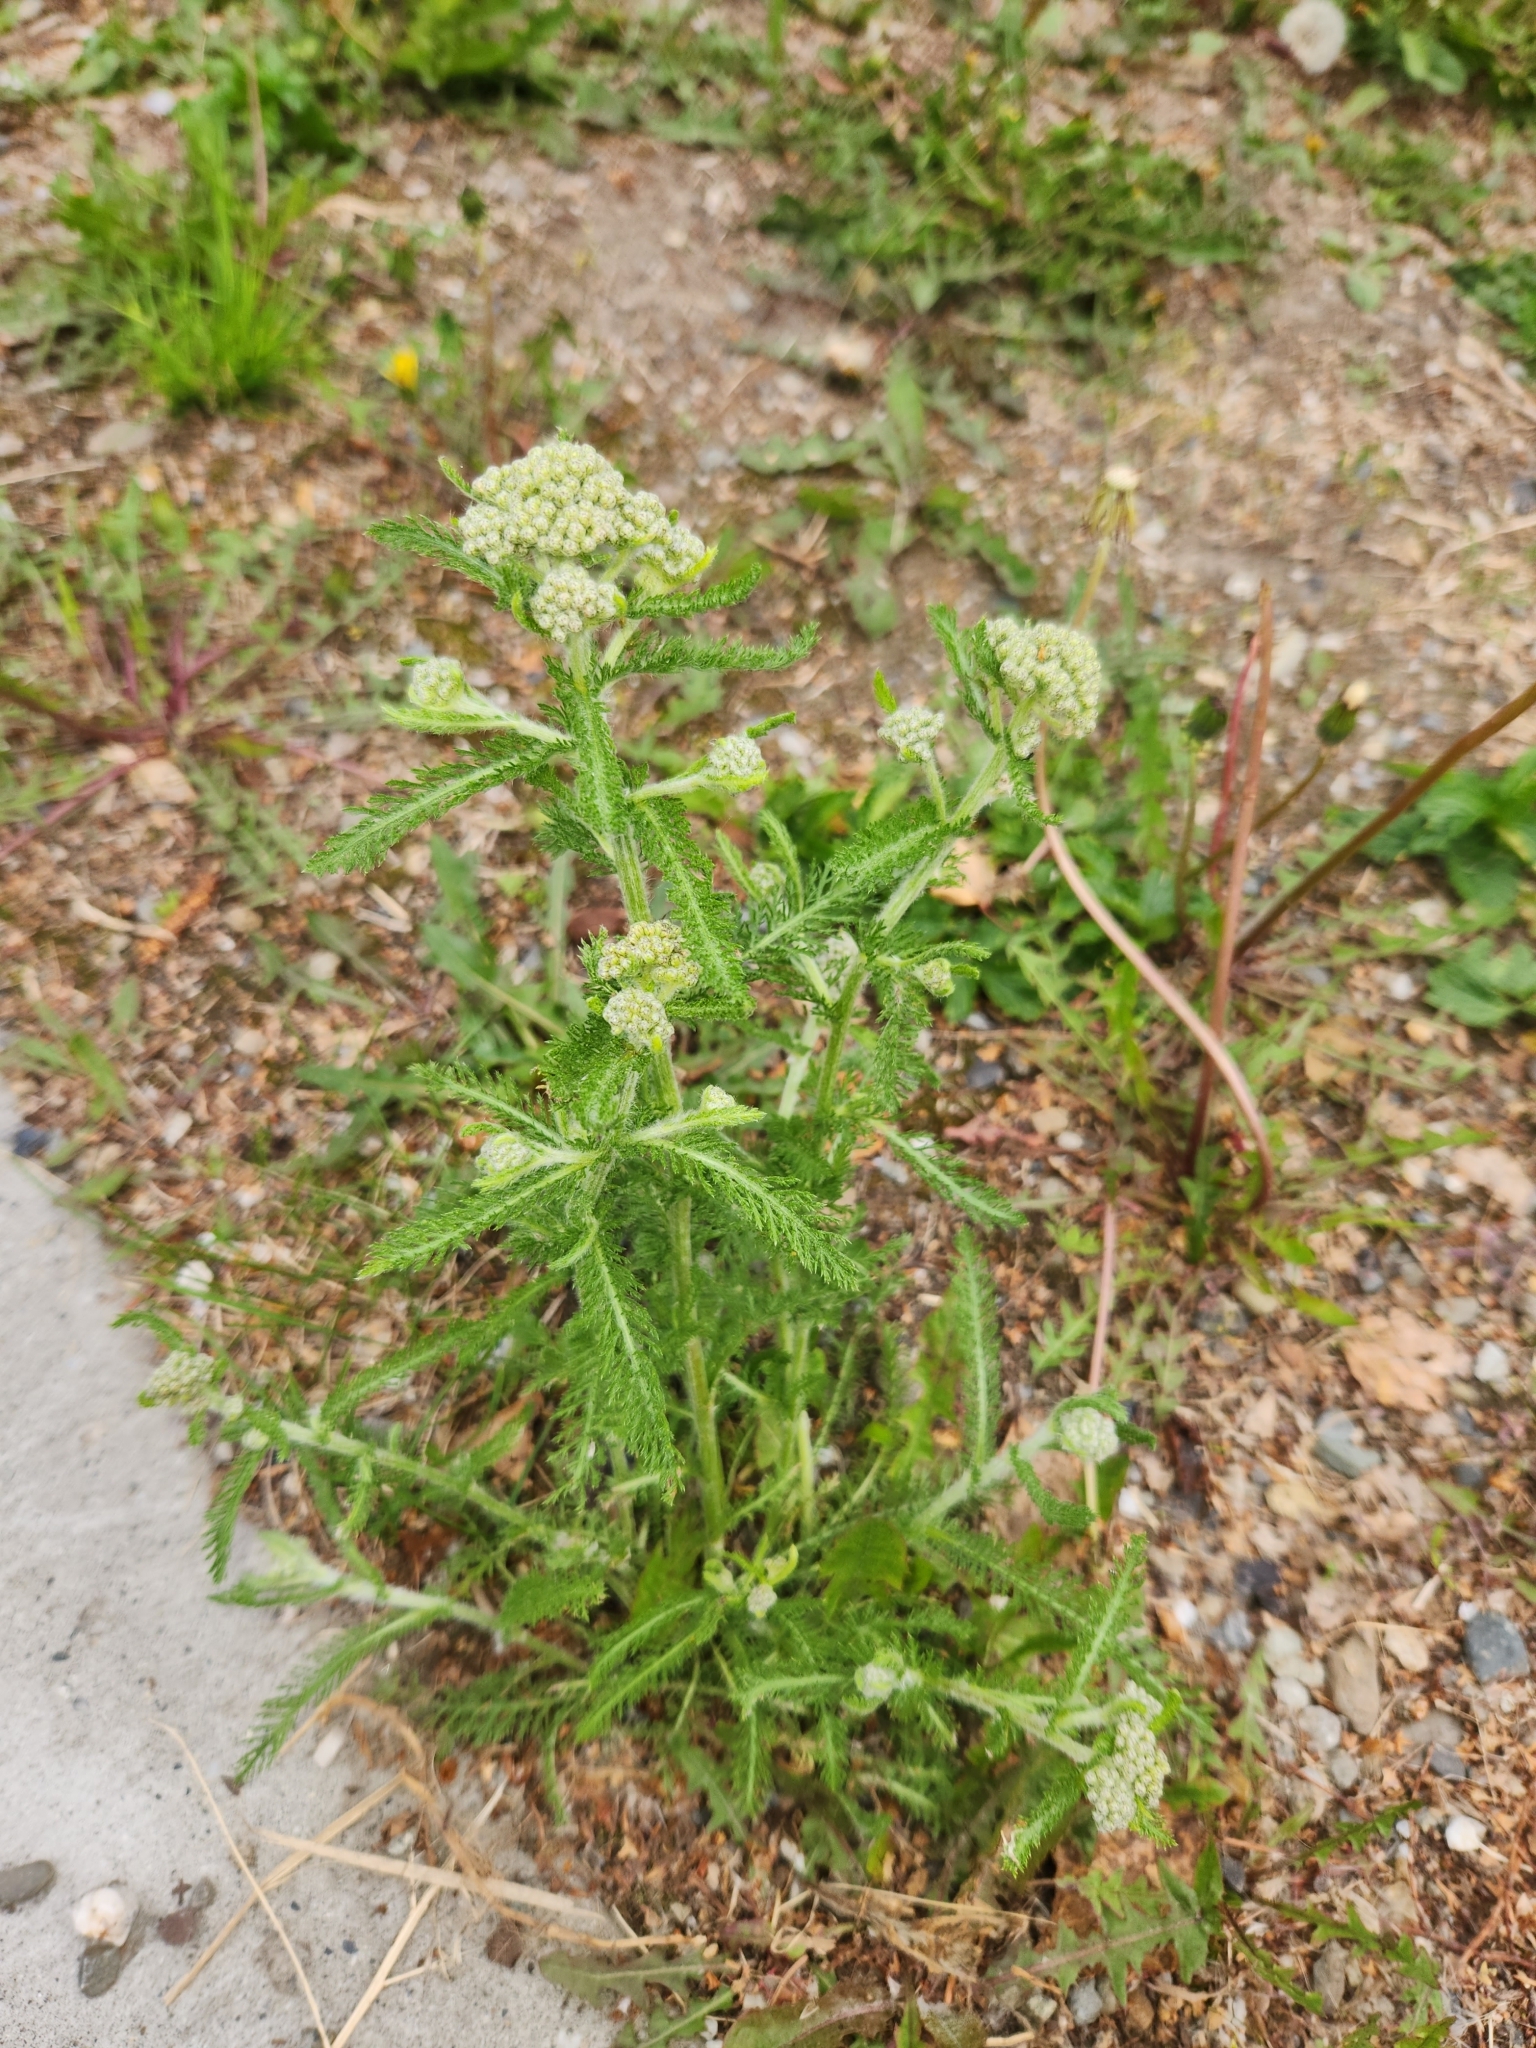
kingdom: Plantae
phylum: Tracheophyta
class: Magnoliopsida
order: Asterales
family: Asteraceae
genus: Achillea
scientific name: Achillea millefolium
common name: Yarrow
